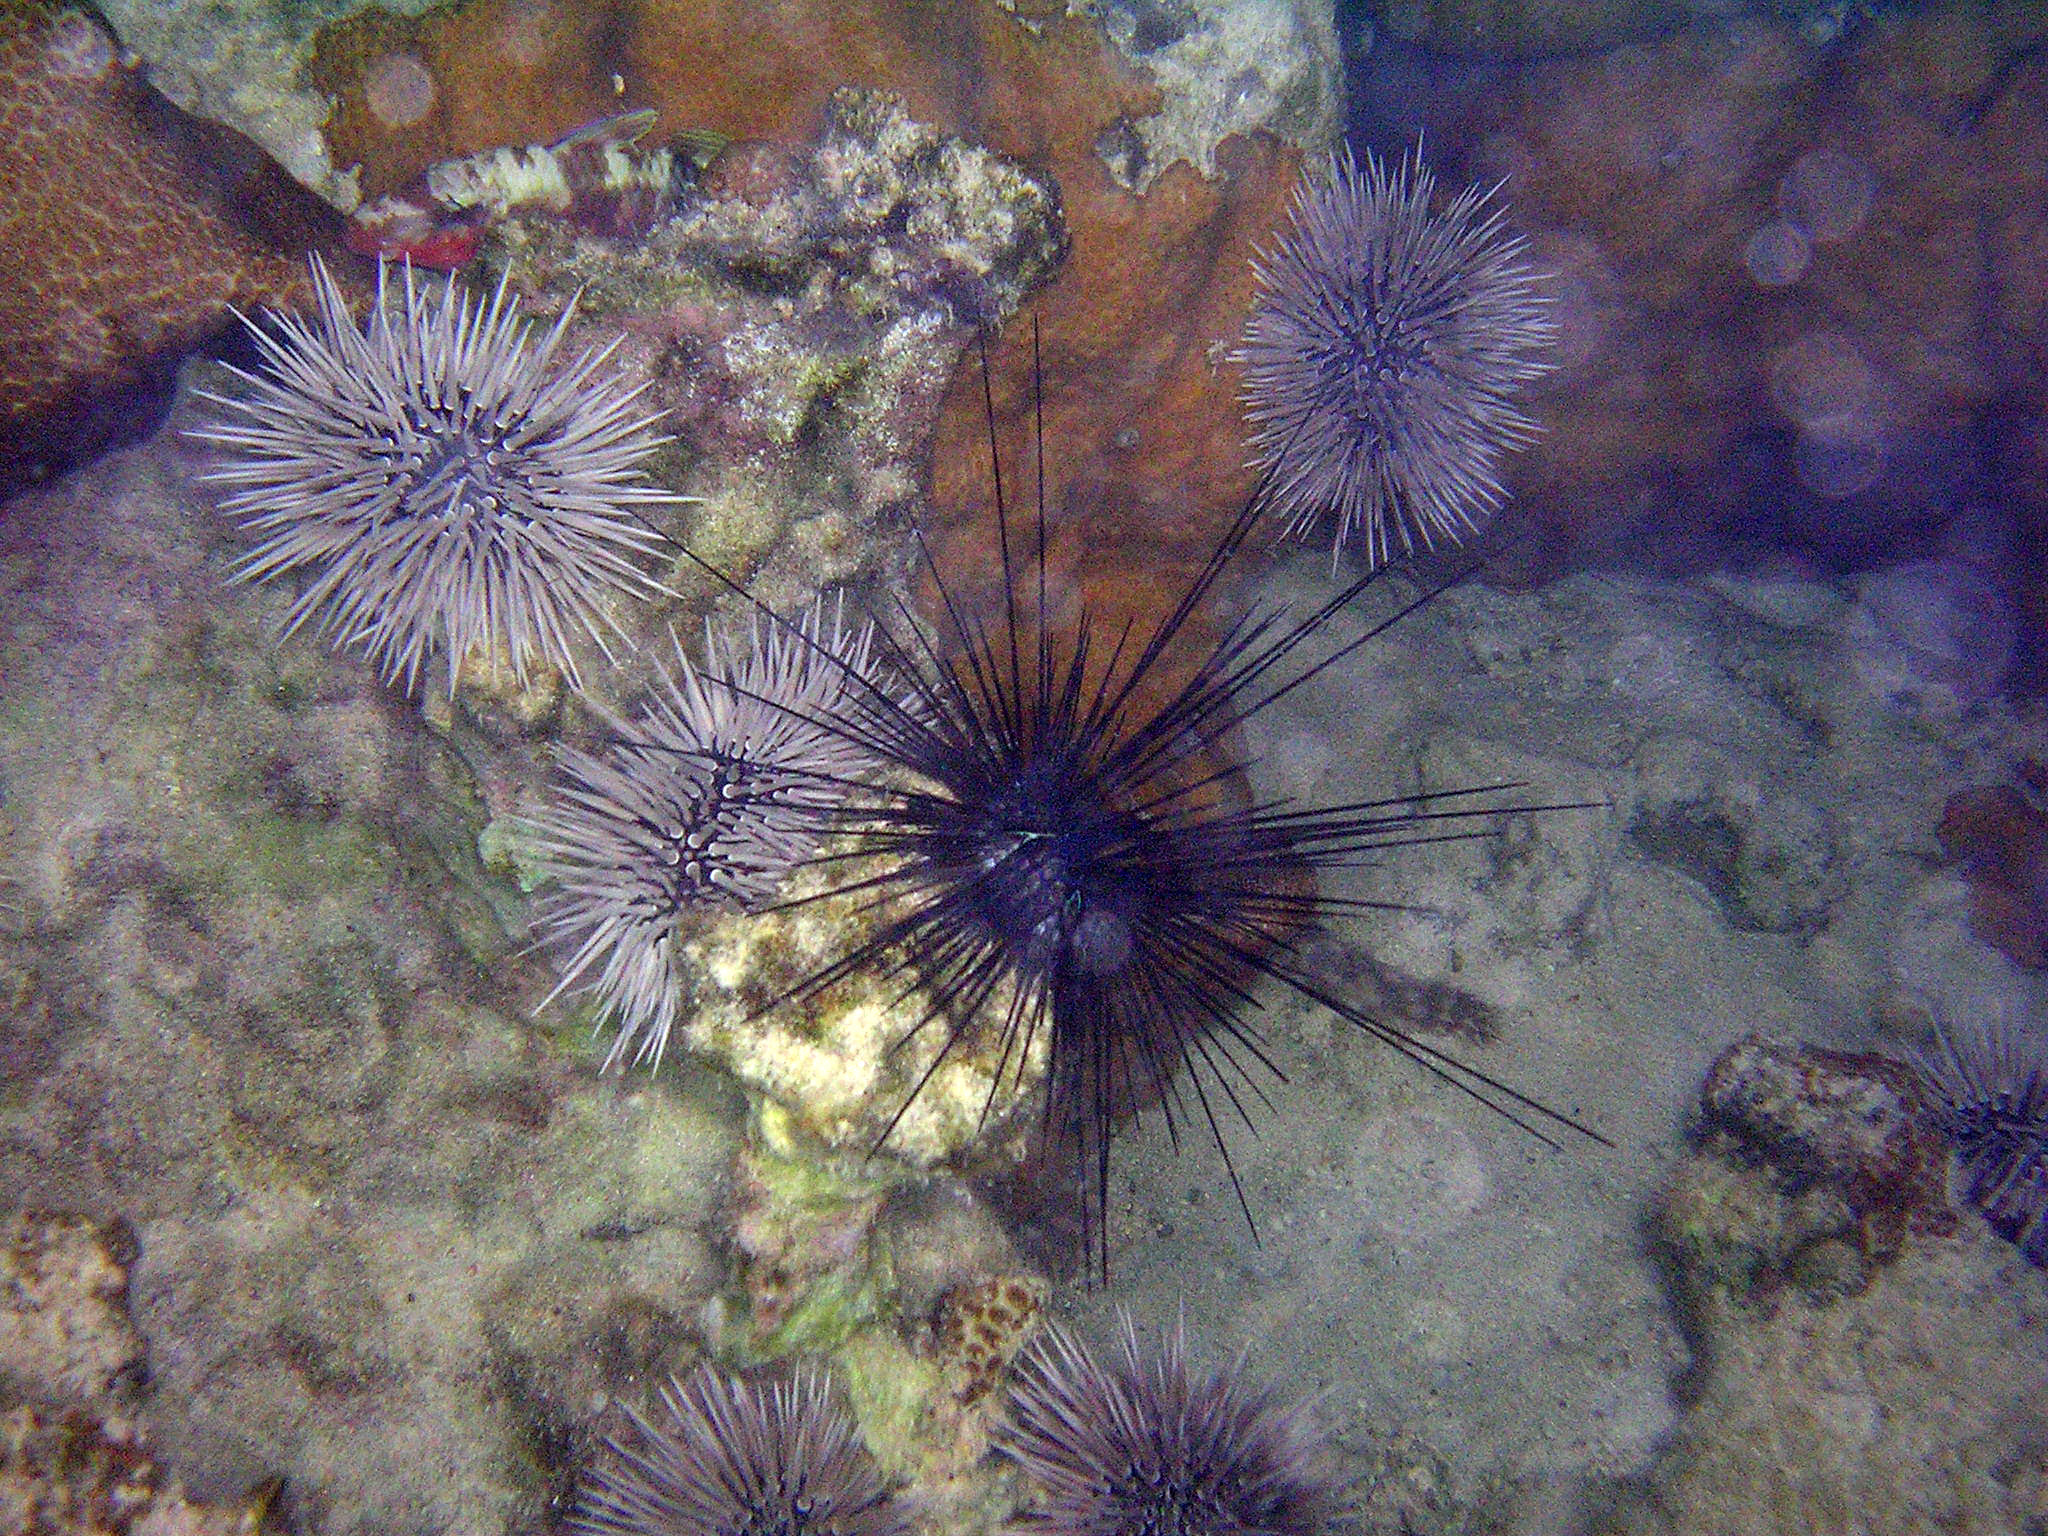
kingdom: Animalia
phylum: Echinodermata
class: Echinoidea
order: Diadematoida
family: Diadematidae
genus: Diadema
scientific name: Diadema savignyi
